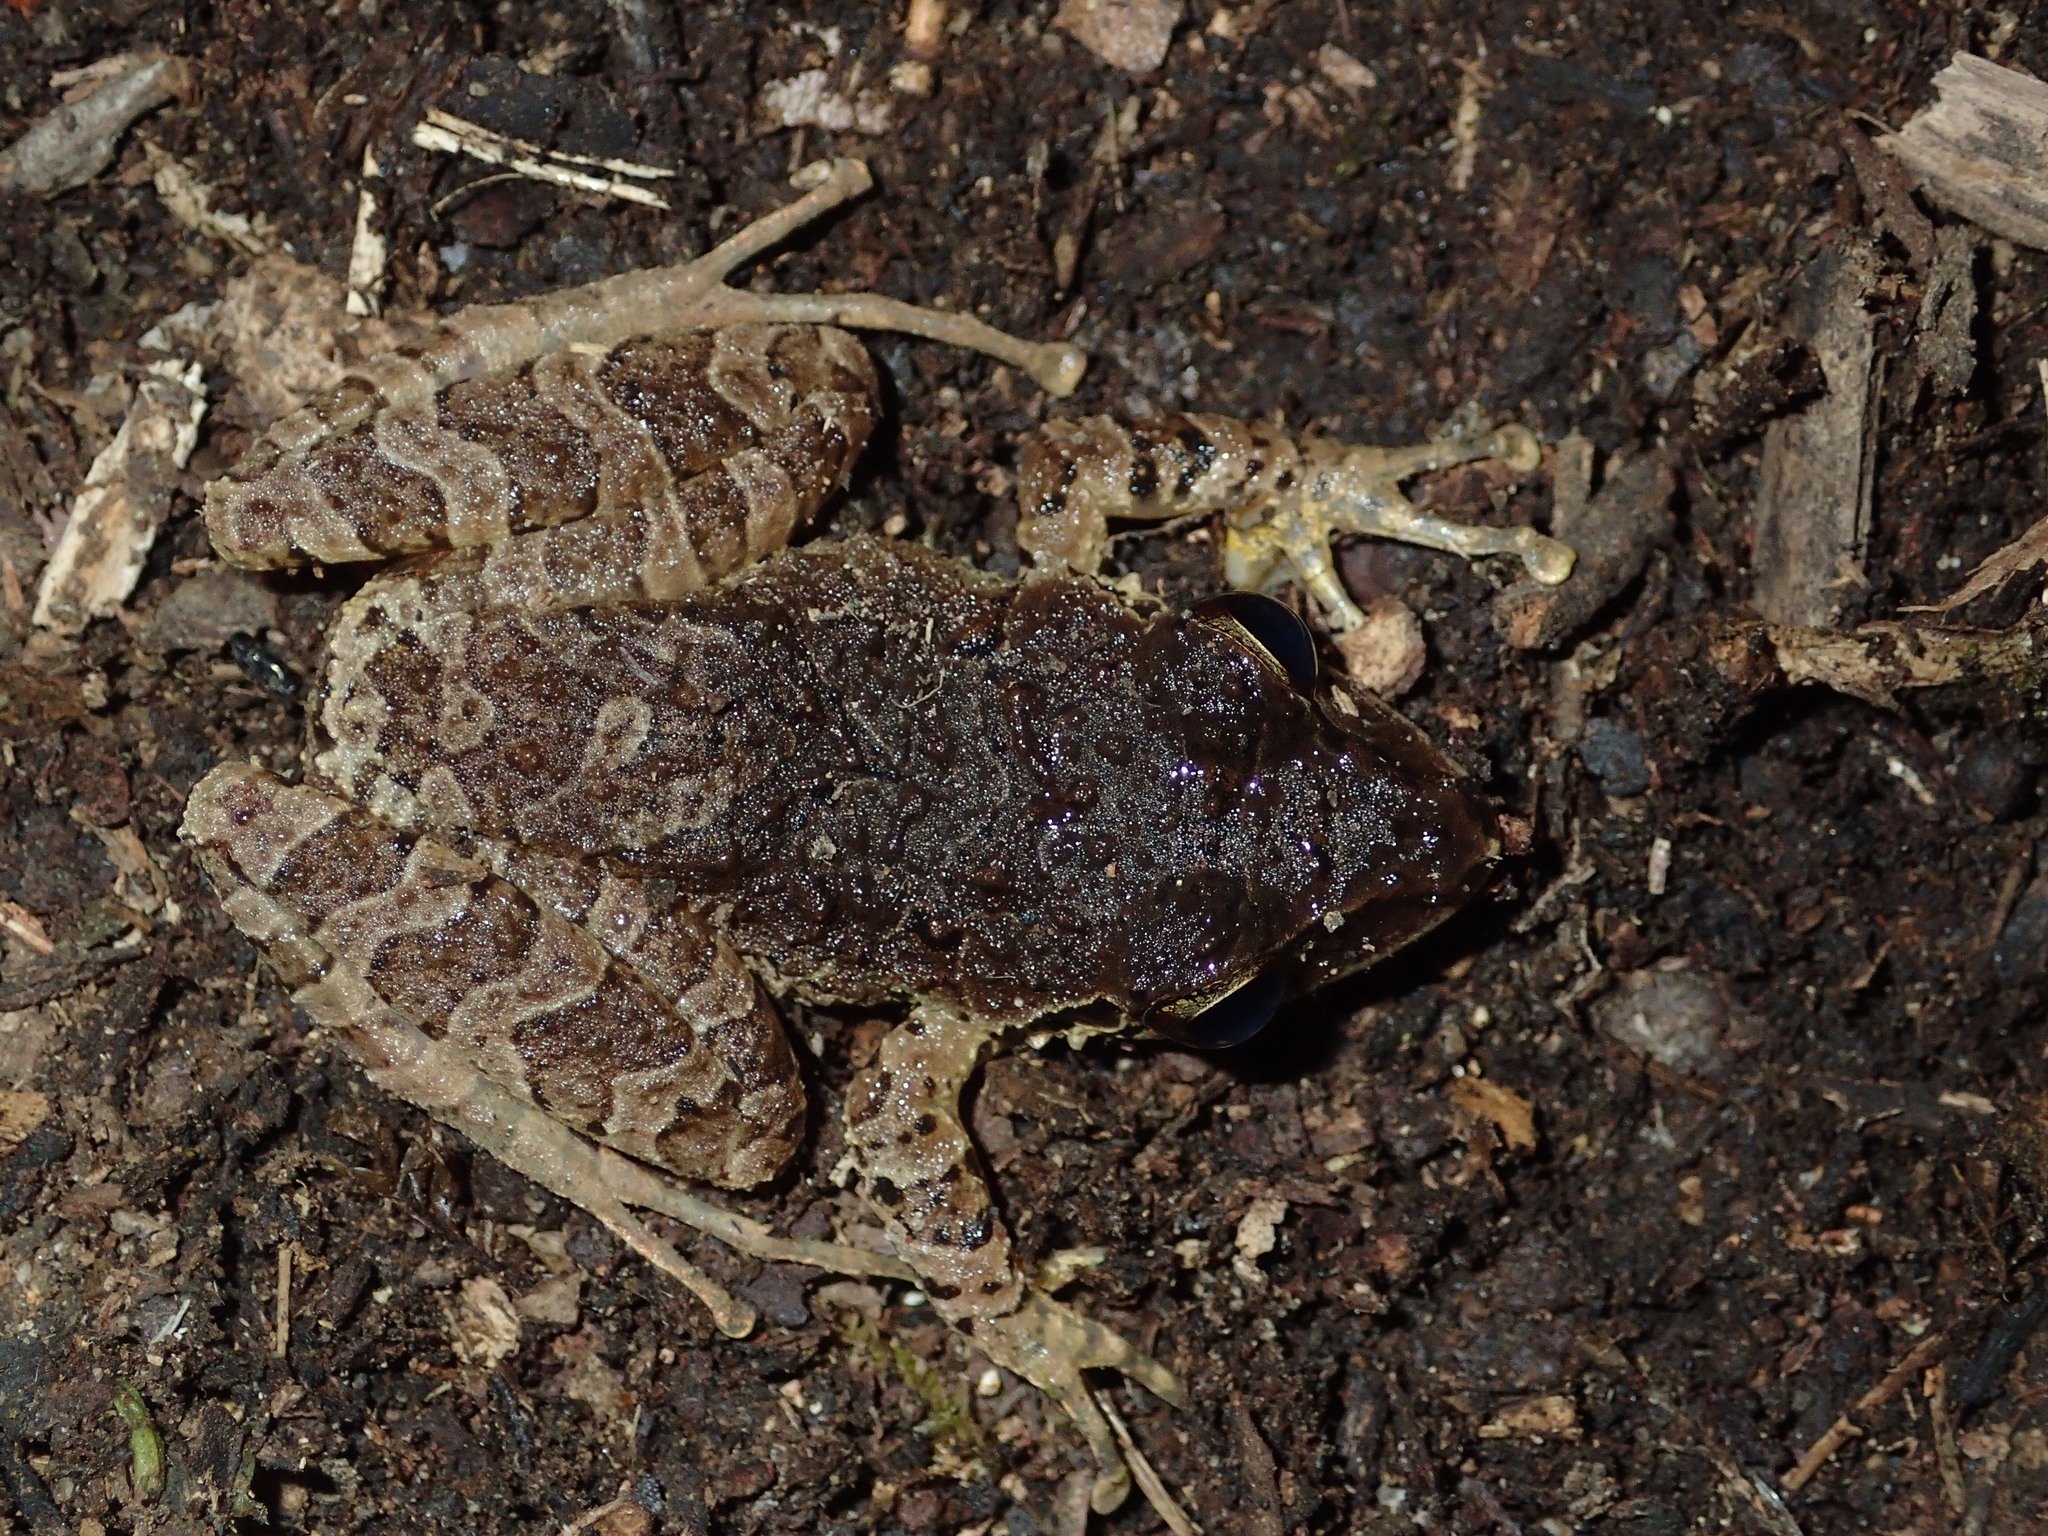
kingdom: Animalia
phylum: Chordata
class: Amphibia
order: Anura
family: Craugastoridae
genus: Pristimantis
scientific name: Pristimantis achatinus
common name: Cachabi robber frog
